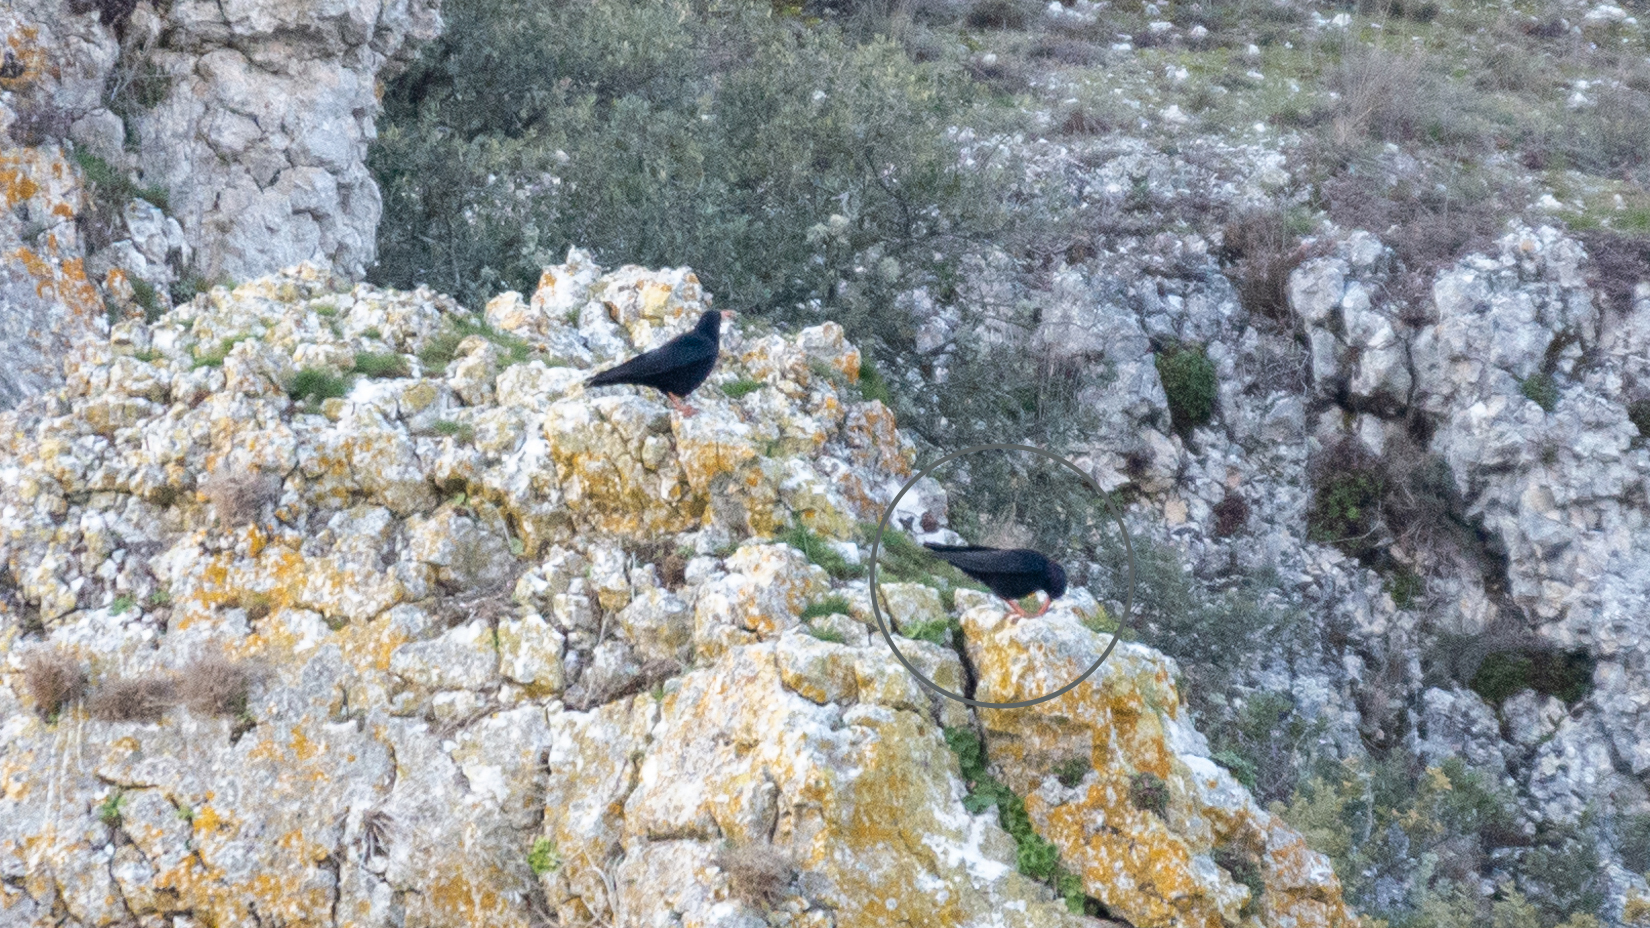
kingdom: Animalia
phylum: Chordata
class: Aves
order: Passeriformes
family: Corvidae
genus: Pyrrhocorax
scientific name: Pyrrhocorax pyrrhocorax
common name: Red-billed chough
